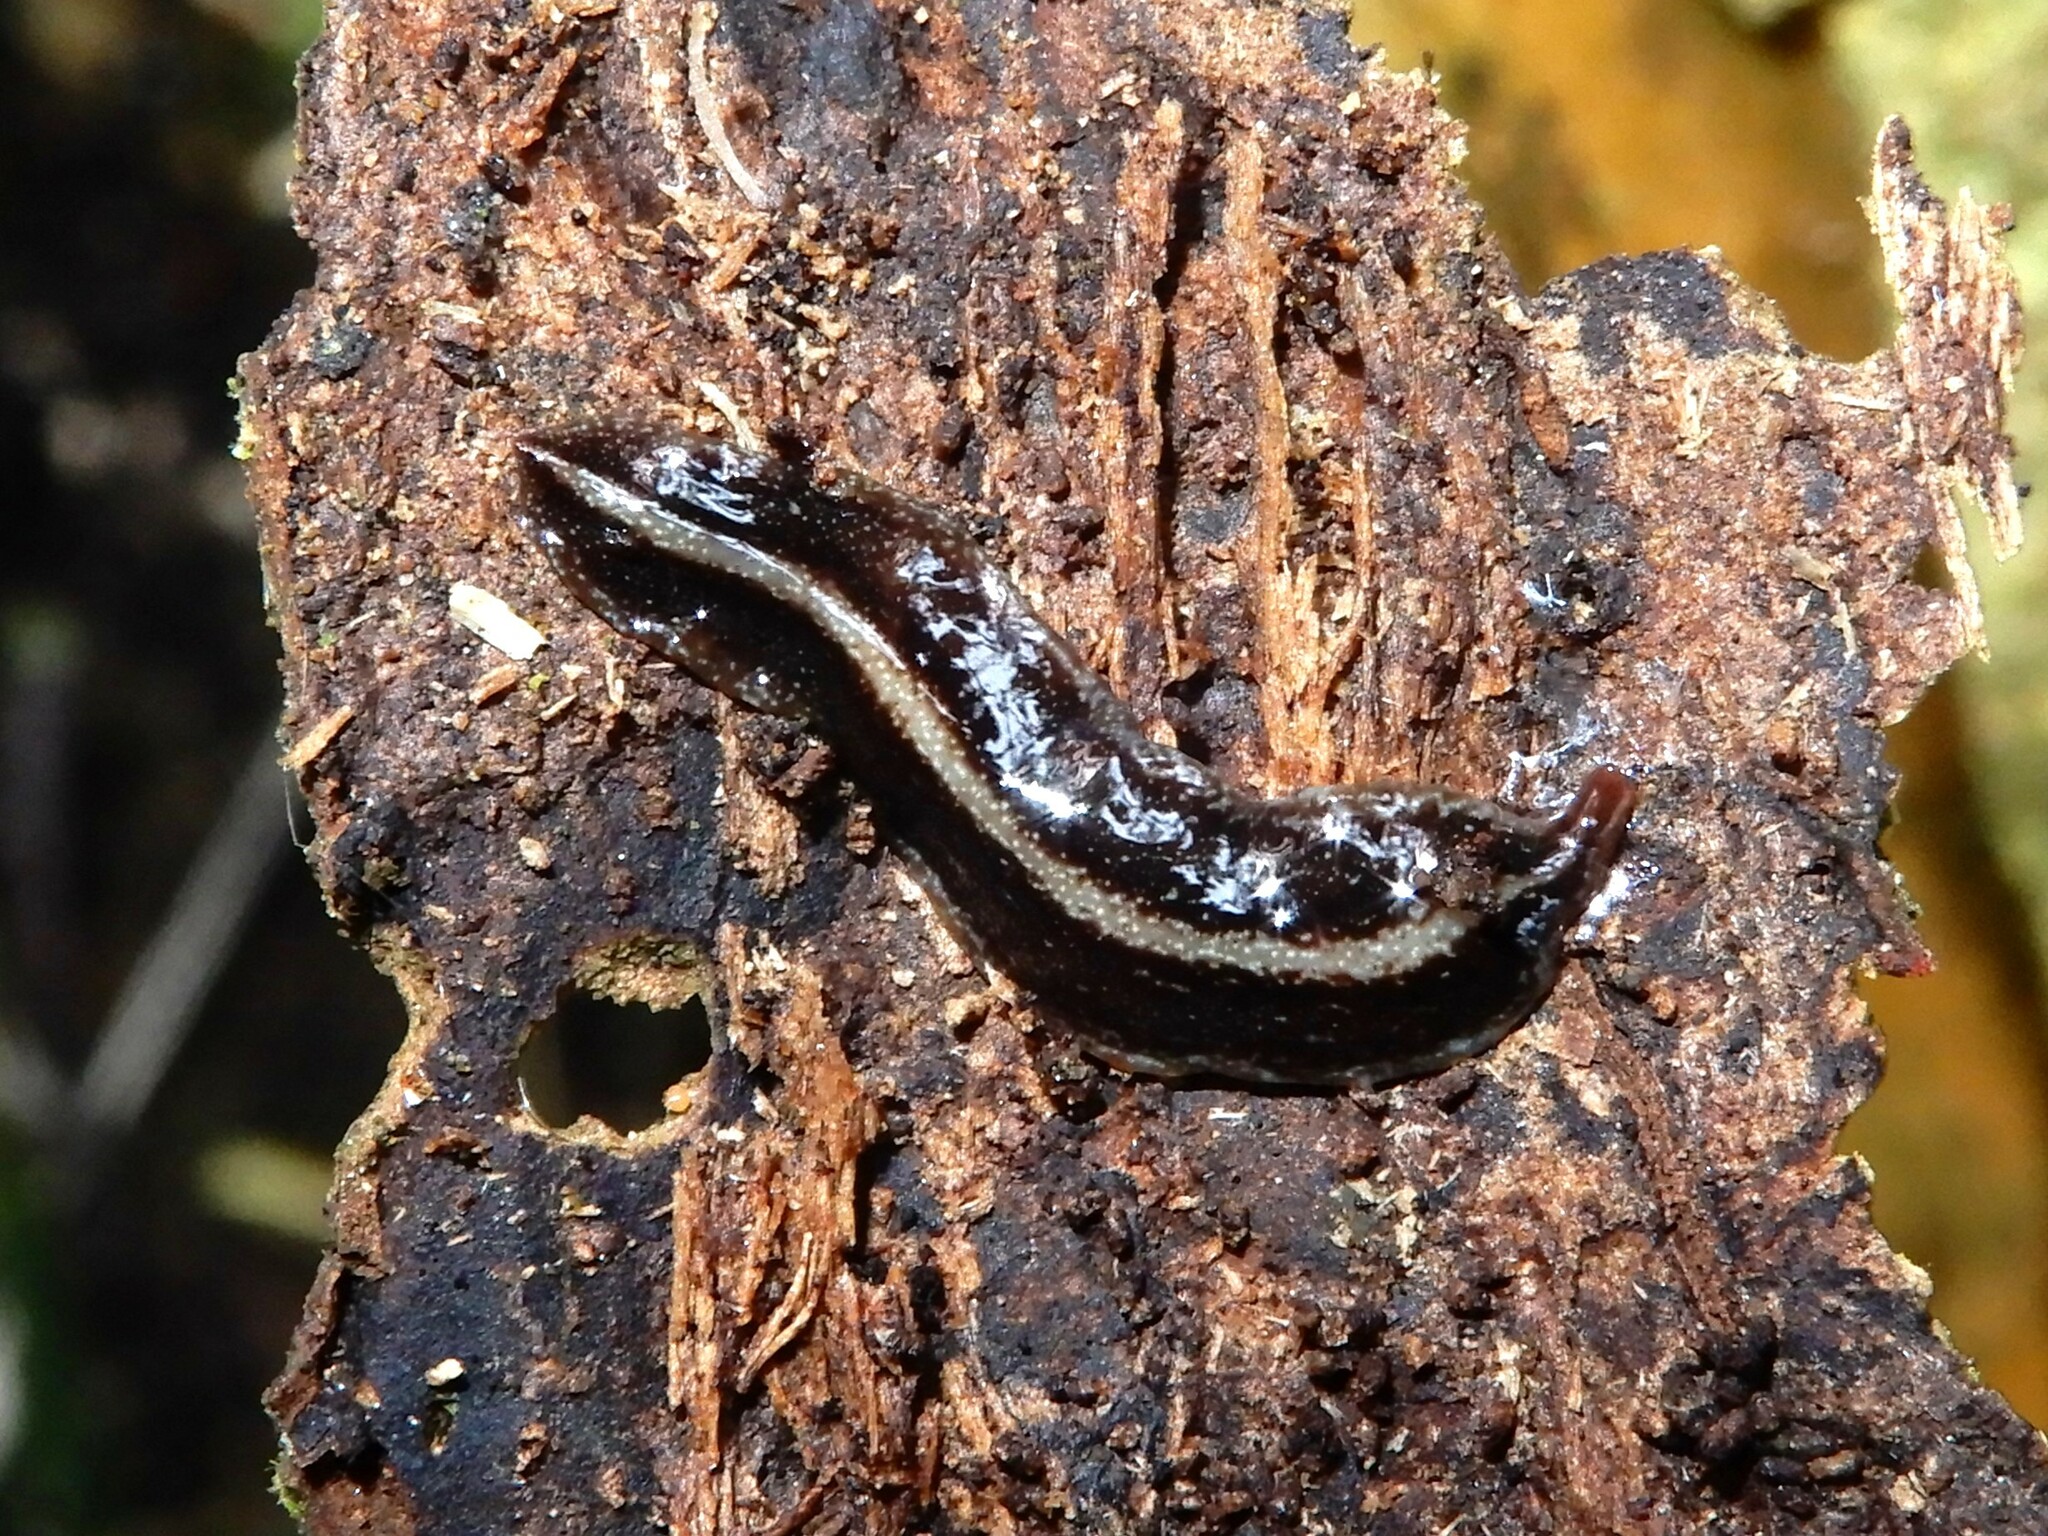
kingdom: Animalia
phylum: Platyhelminthes
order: Tricladida
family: Geoplanidae
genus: Newzealandia
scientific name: Newzealandia graffii
